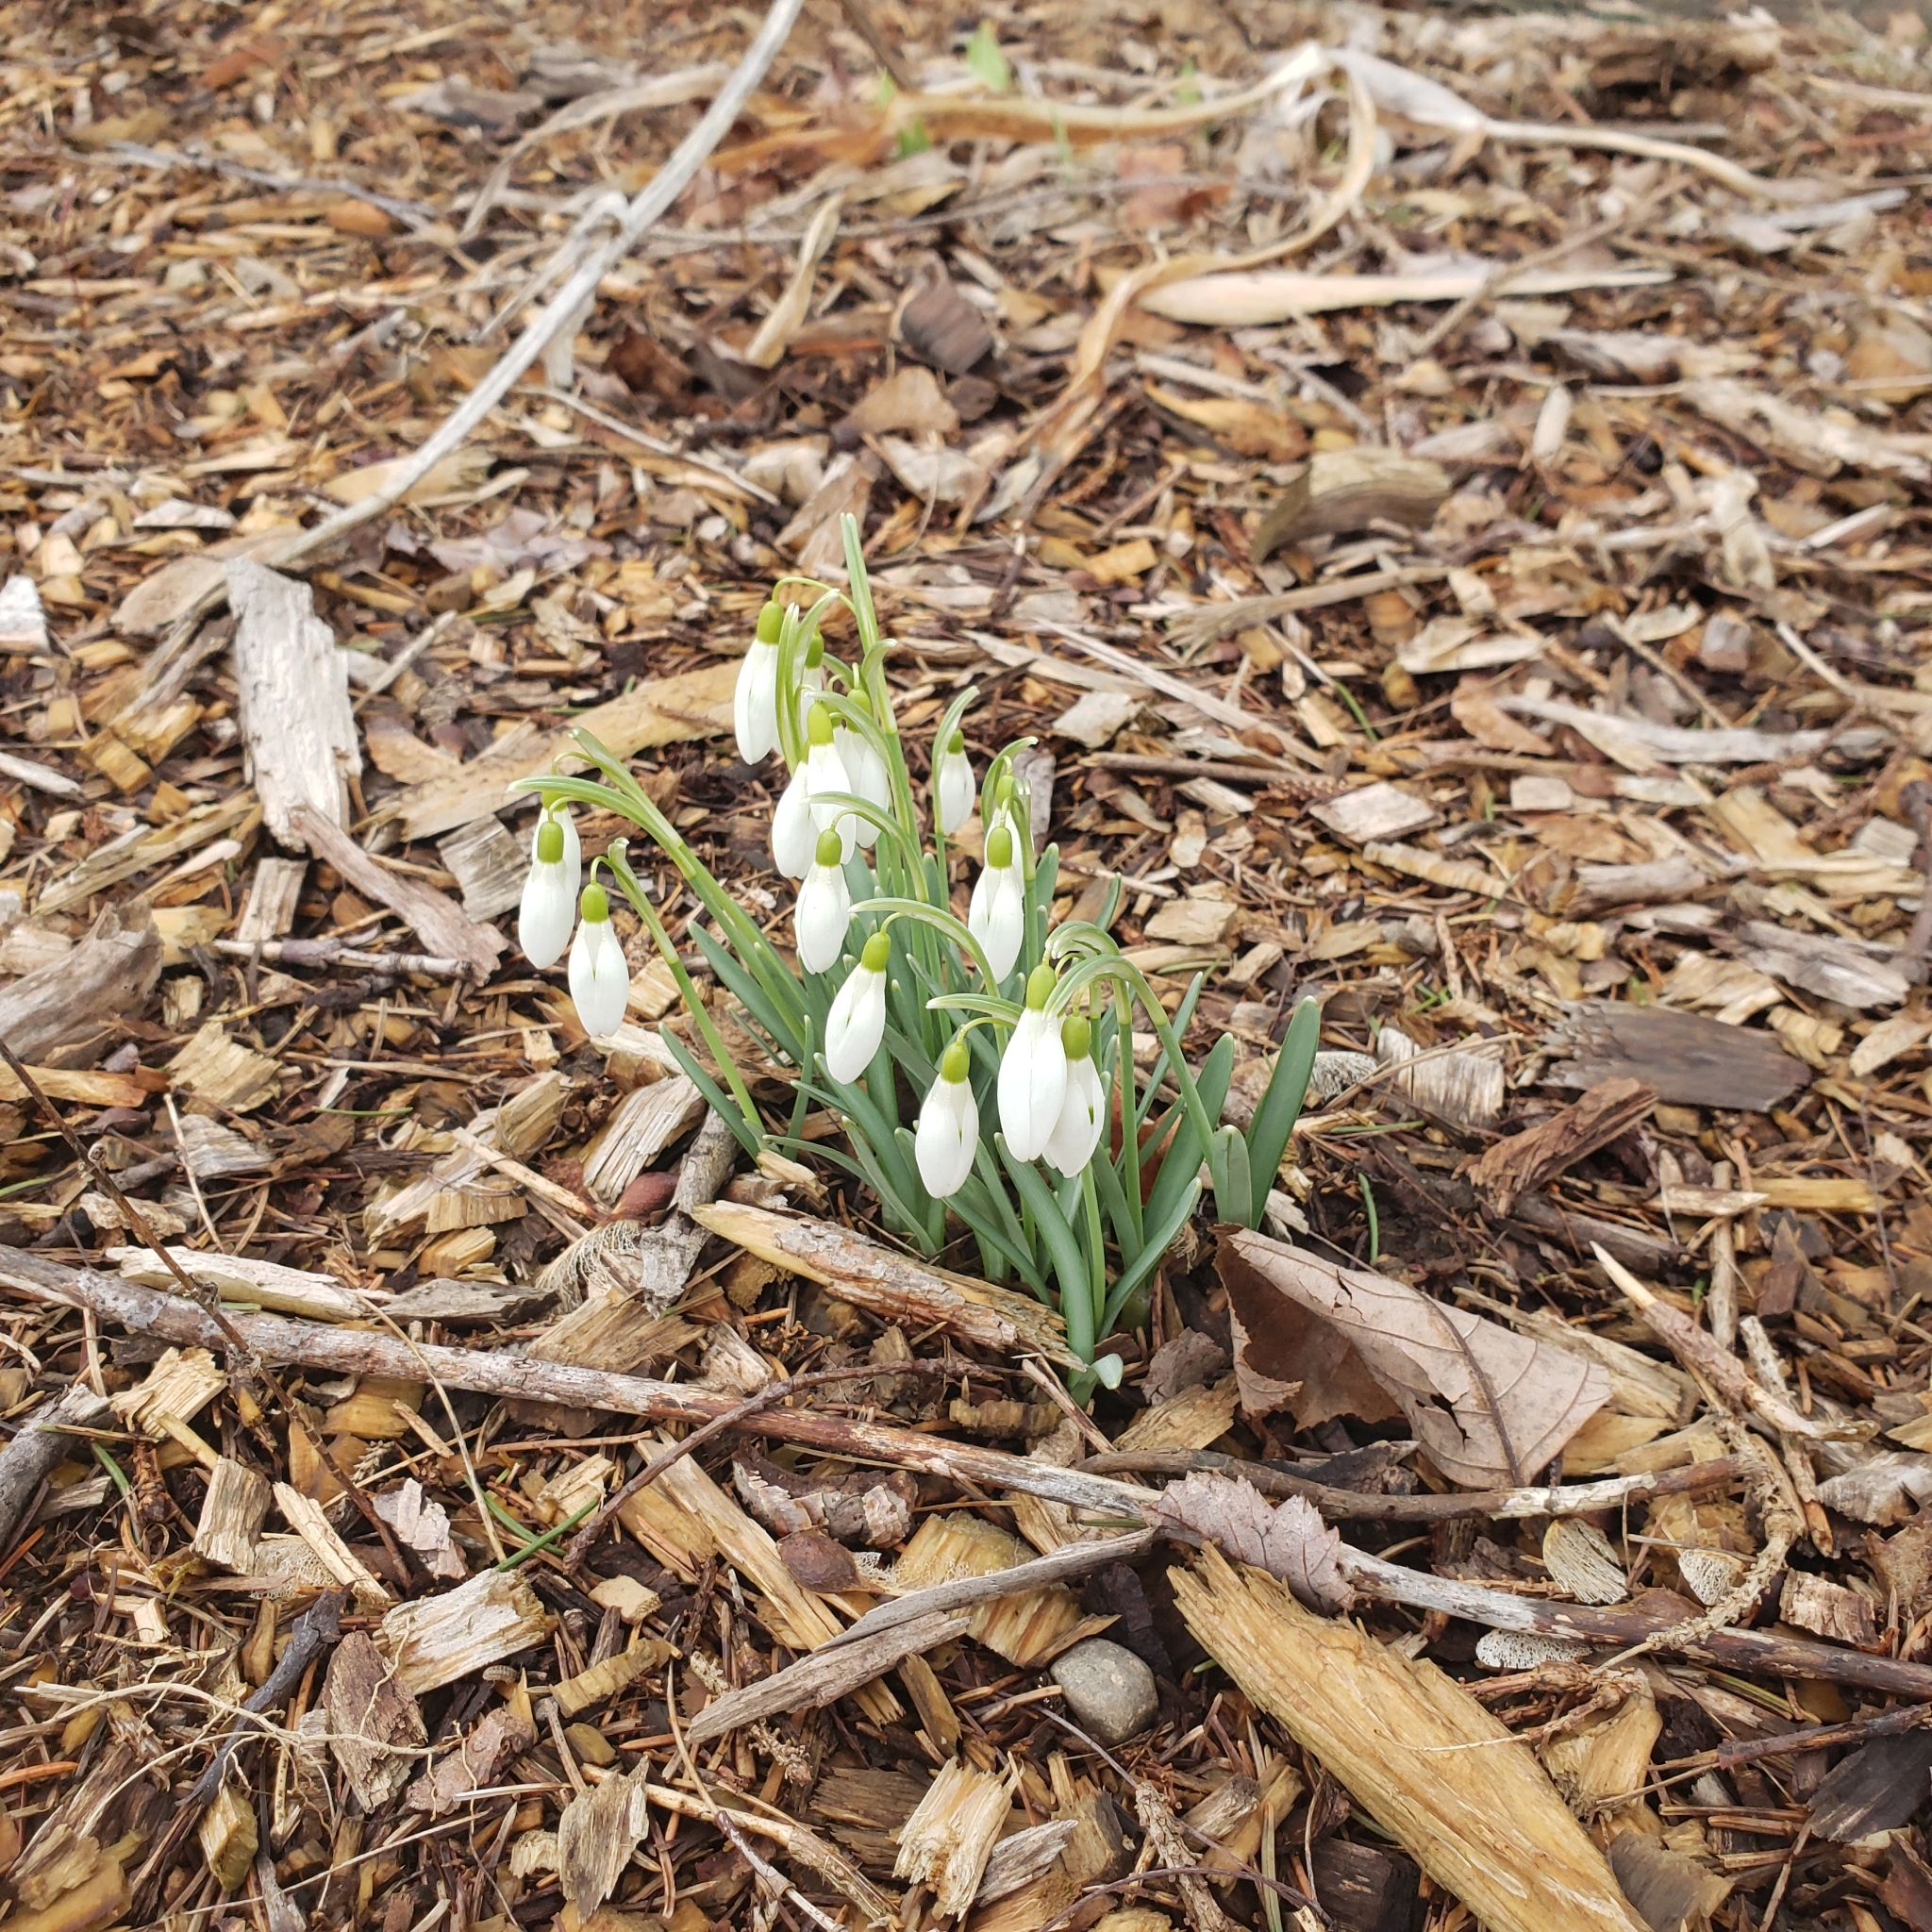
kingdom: Plantae
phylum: Tracheophyta
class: Liliopsida
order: Asparagales
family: Amaryllidaceae
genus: Galanthus
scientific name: Galanthus nivalis
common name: Snowdrop
